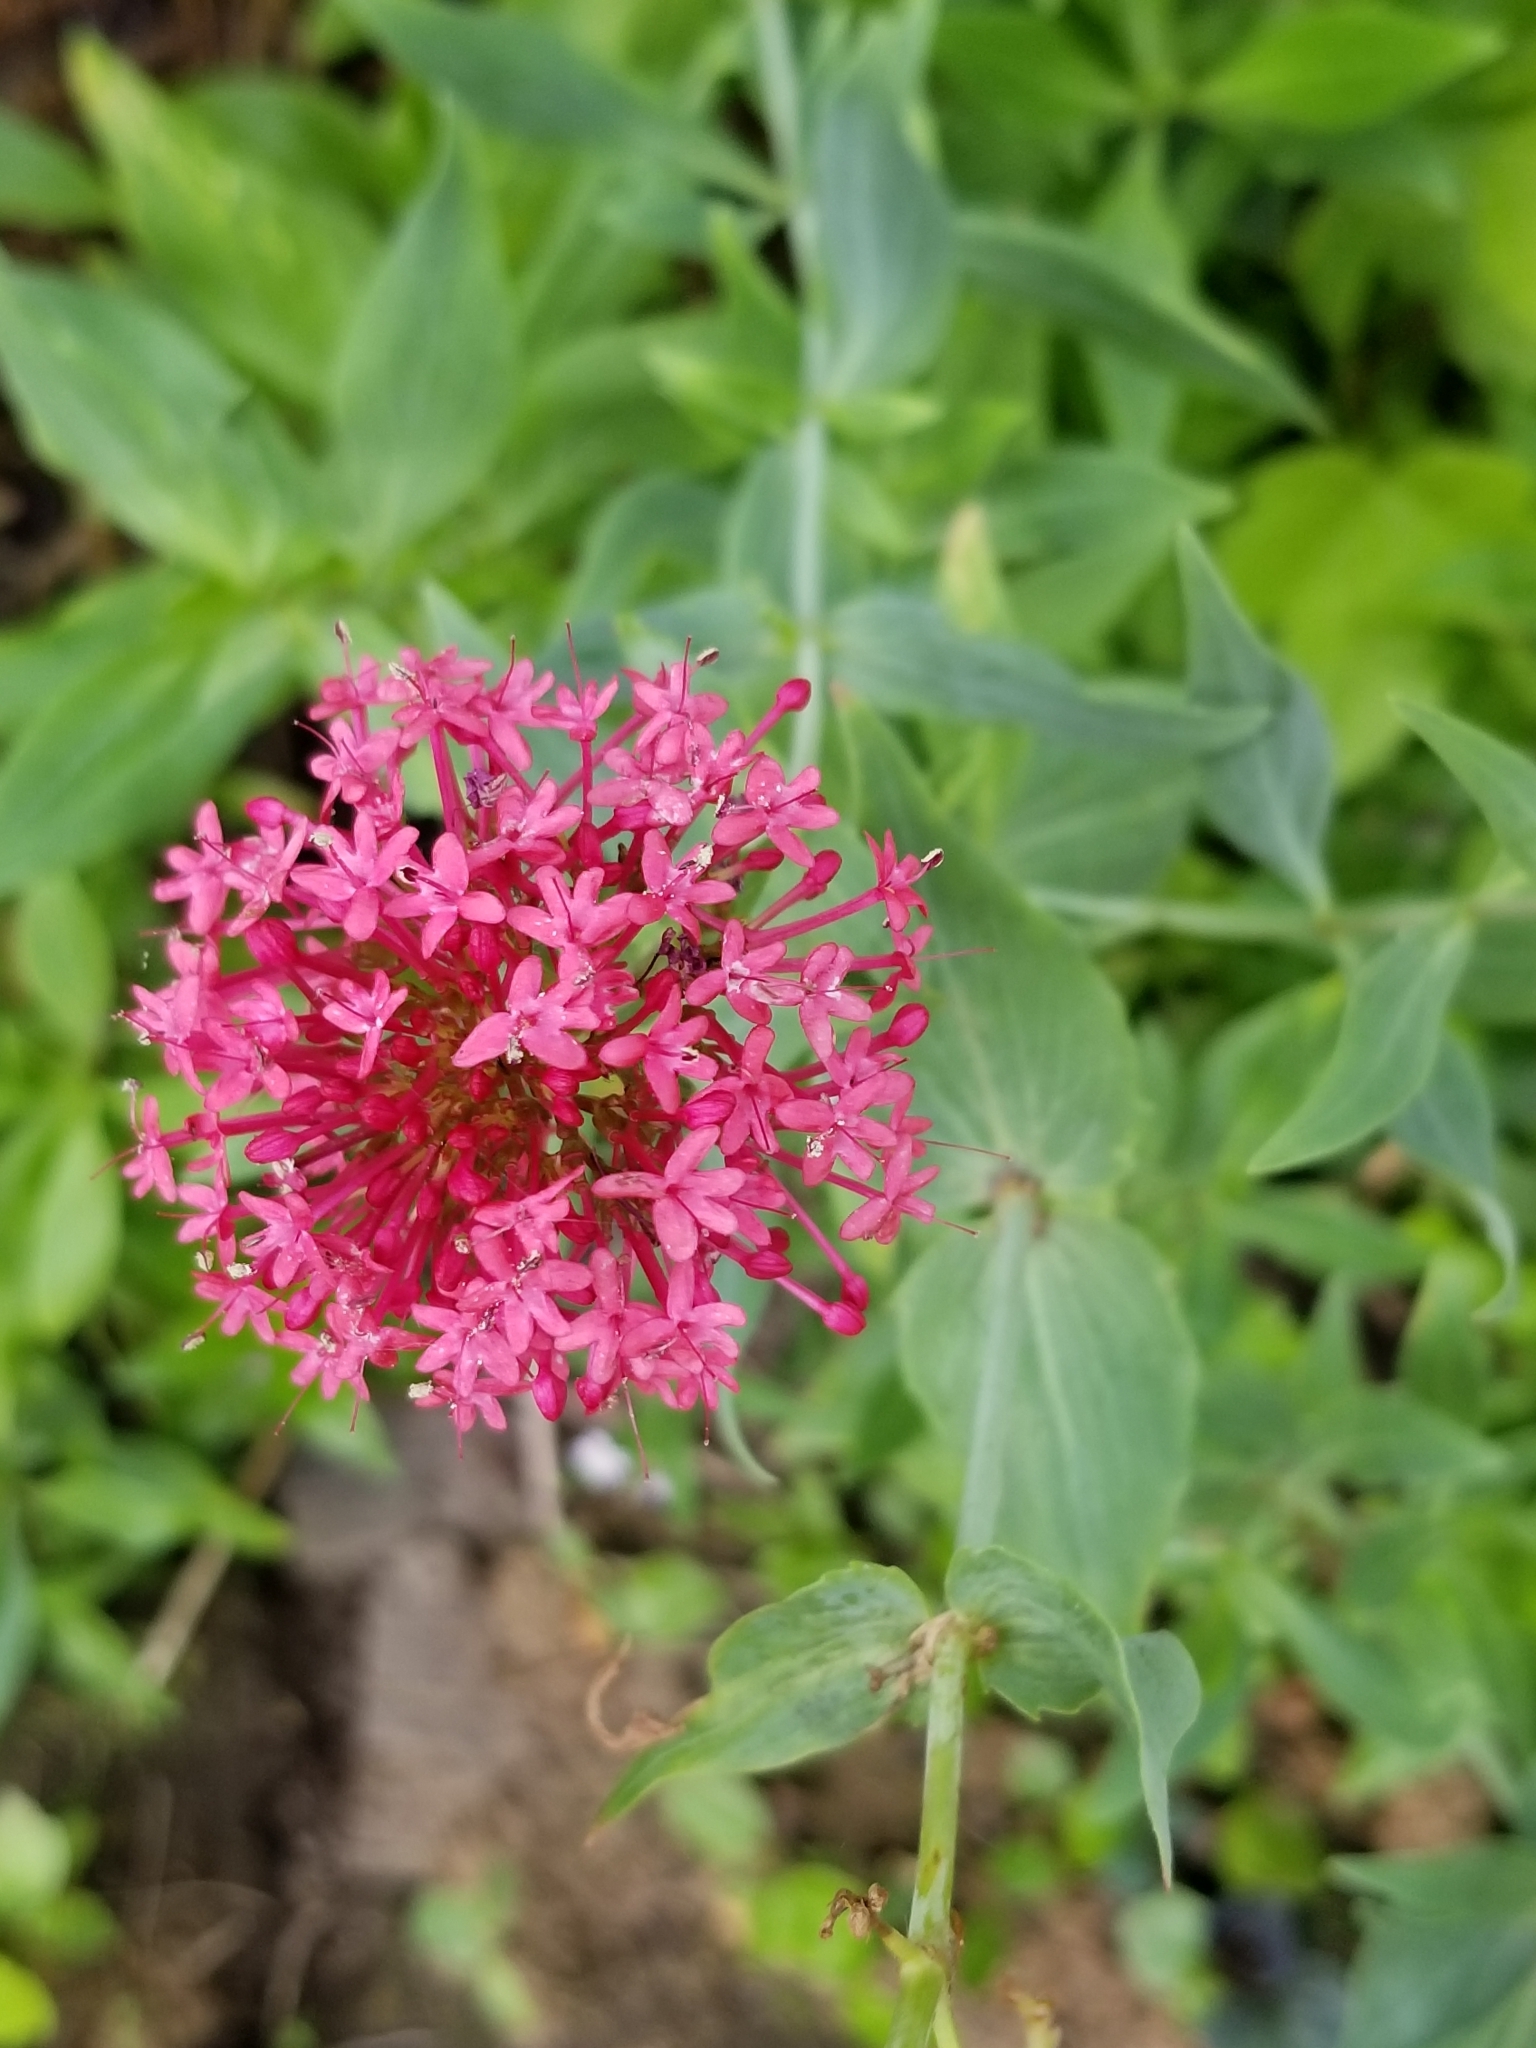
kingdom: Plantae
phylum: Tracheophyta
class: Magnoliopsida
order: Dipsacales
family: Caprifoliaceae
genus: Centranthus
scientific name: Centranthus ruber
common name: Red valerian
